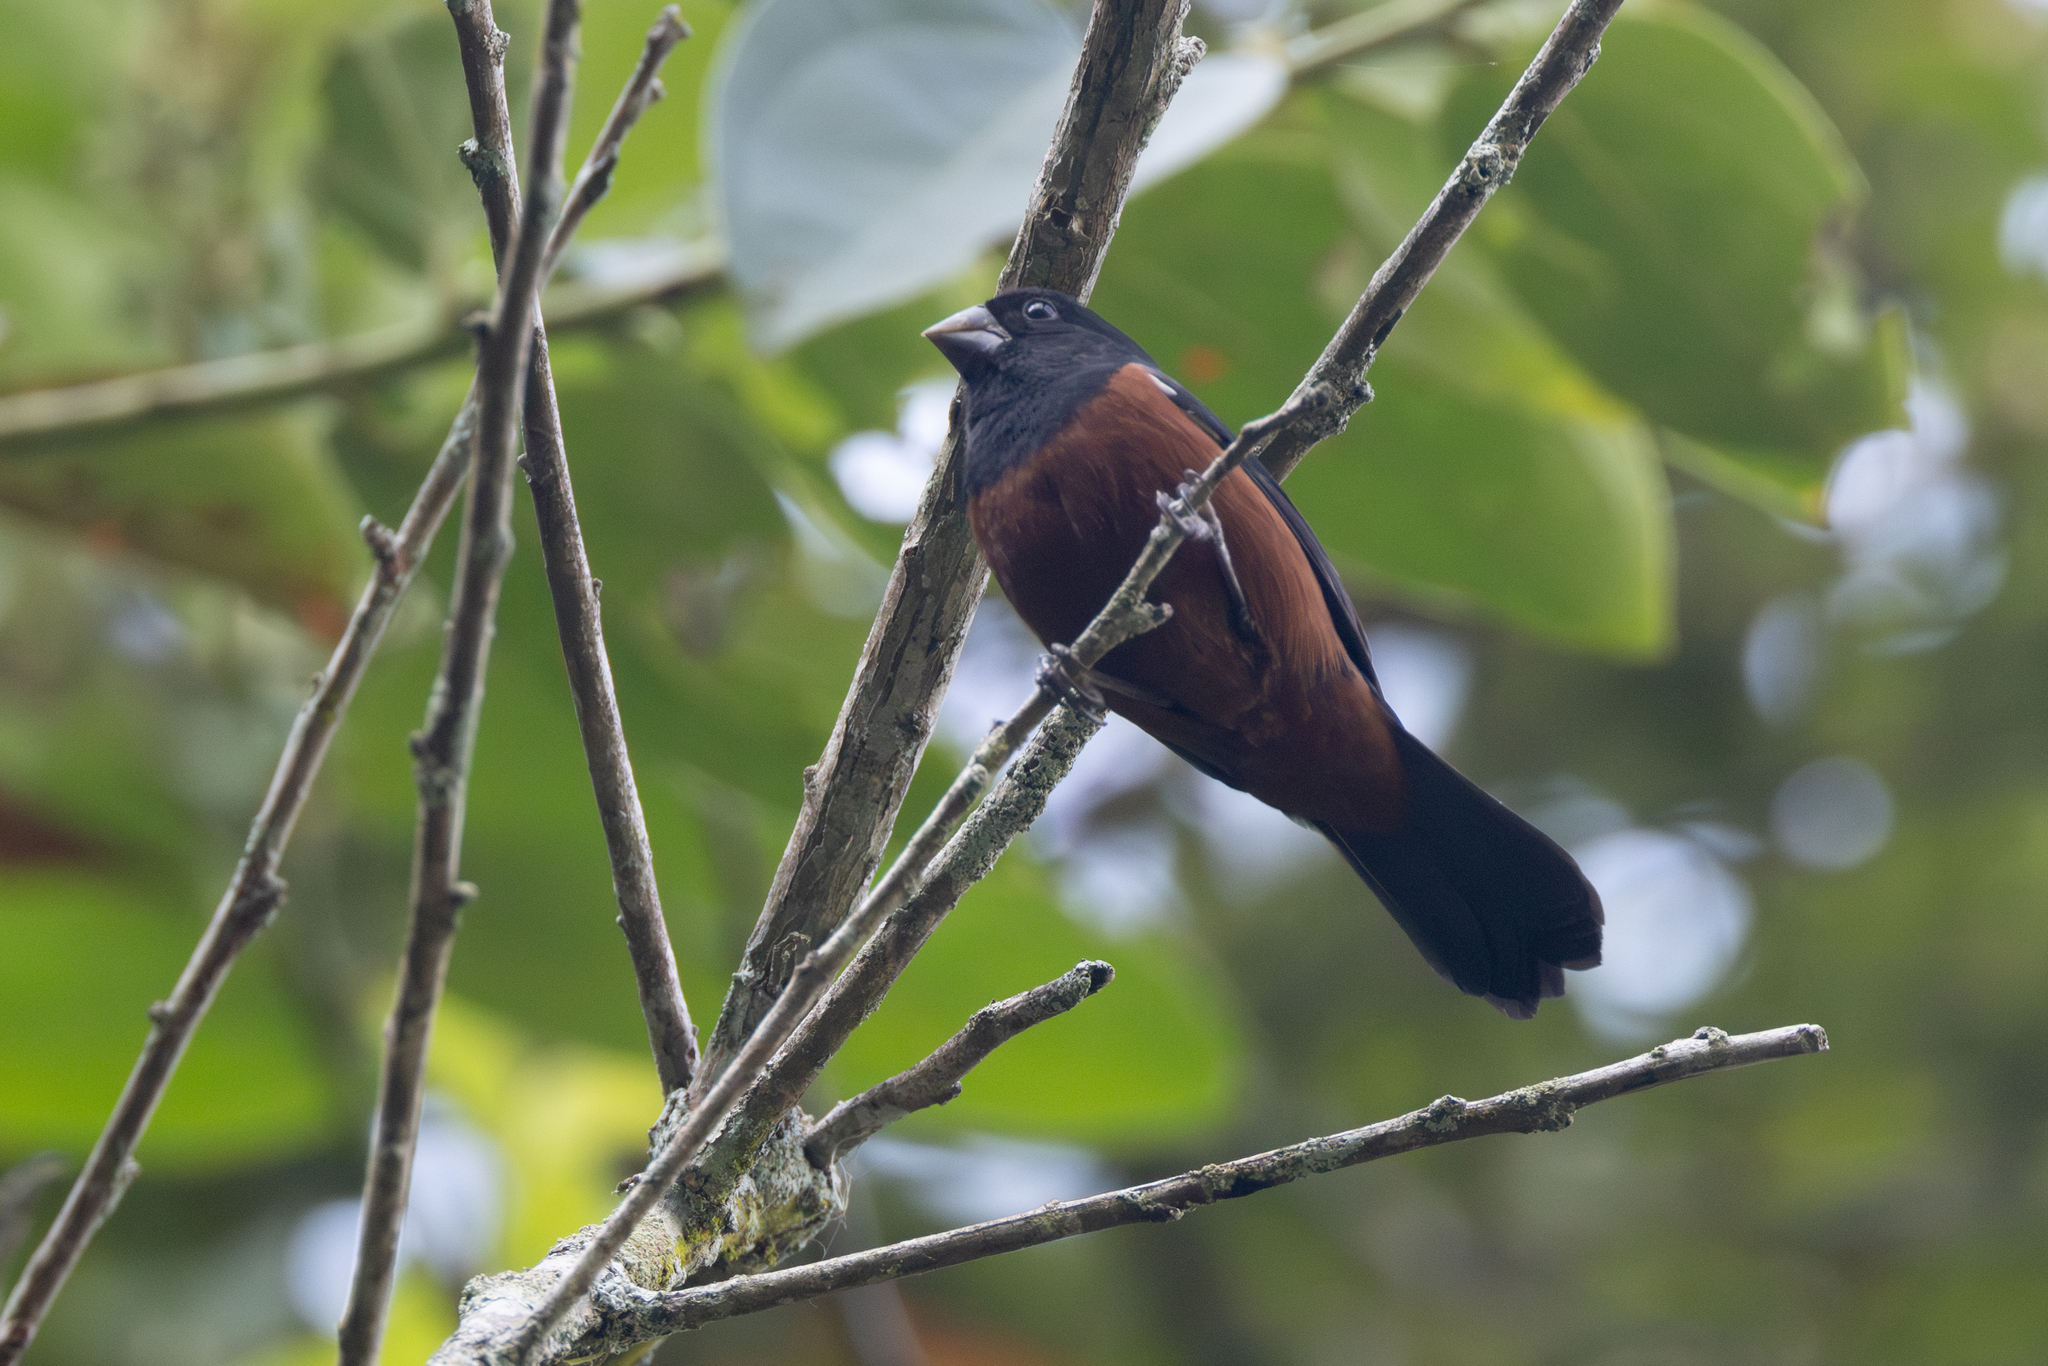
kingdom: Animalia
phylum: Chordata
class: Aves
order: Passeriformes
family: Thraupidae
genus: Sporophila
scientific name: Sporophila angolensis
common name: Chestnut-bellied seed-finch
